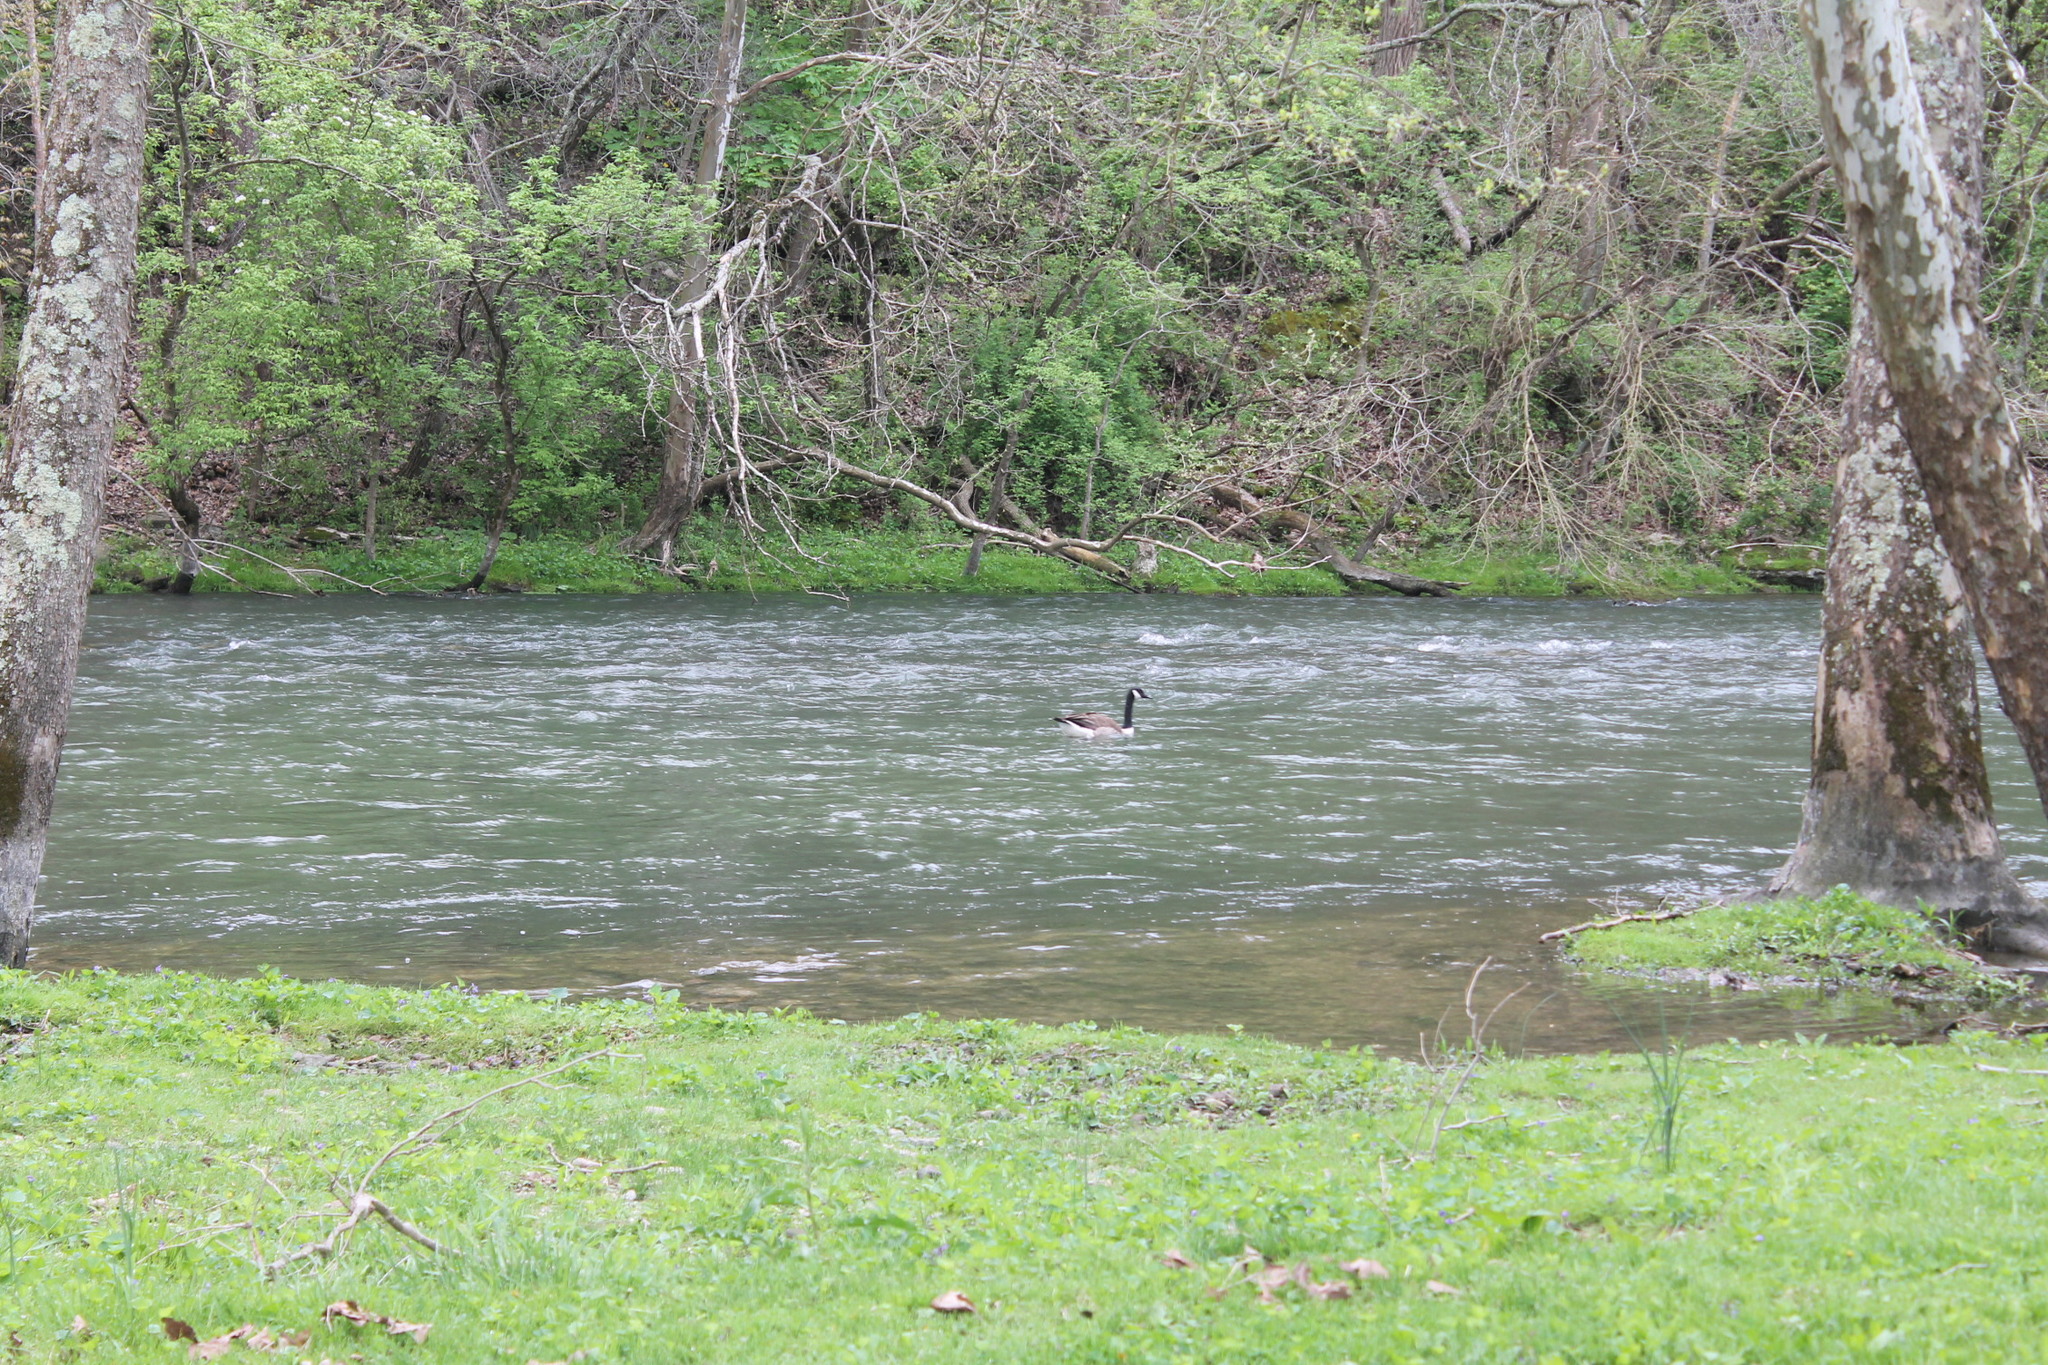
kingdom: Animalia
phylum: Chordata
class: Aves
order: Anseriformes
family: Anatidae
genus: Branta
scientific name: Branta canadensis
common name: Canada goose
